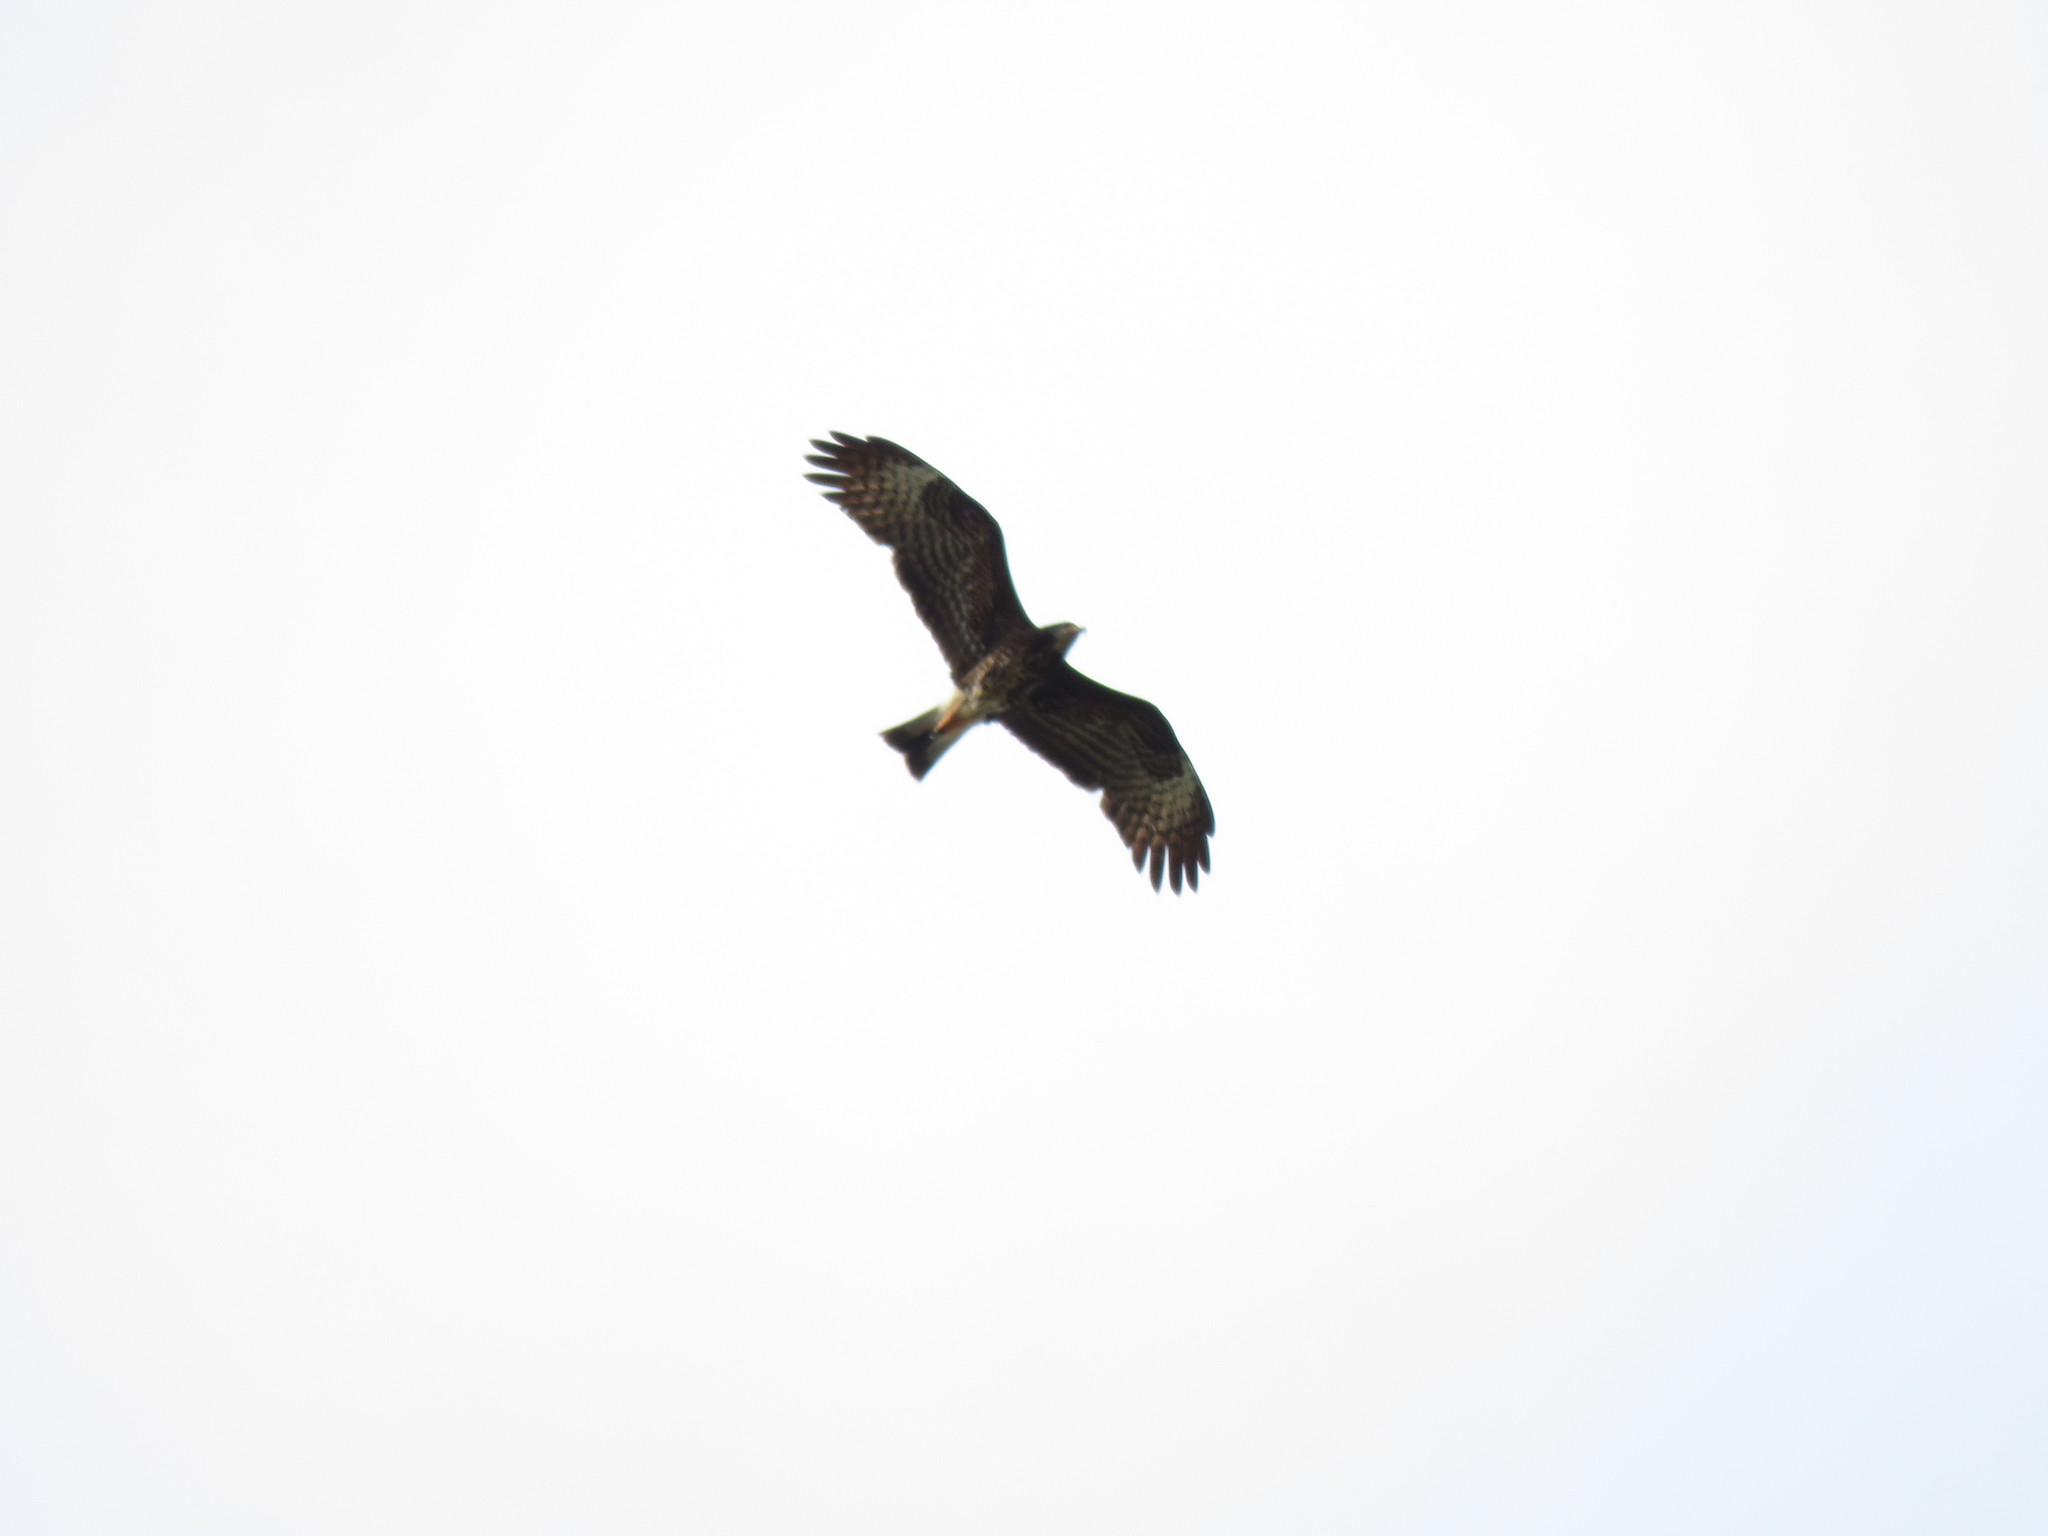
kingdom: Animalia
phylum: Chordata
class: Aves
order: Accipitriformes
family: Accipitridae
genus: Rostrhamus
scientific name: Rostrhamus sociabilis
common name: Snail kite
